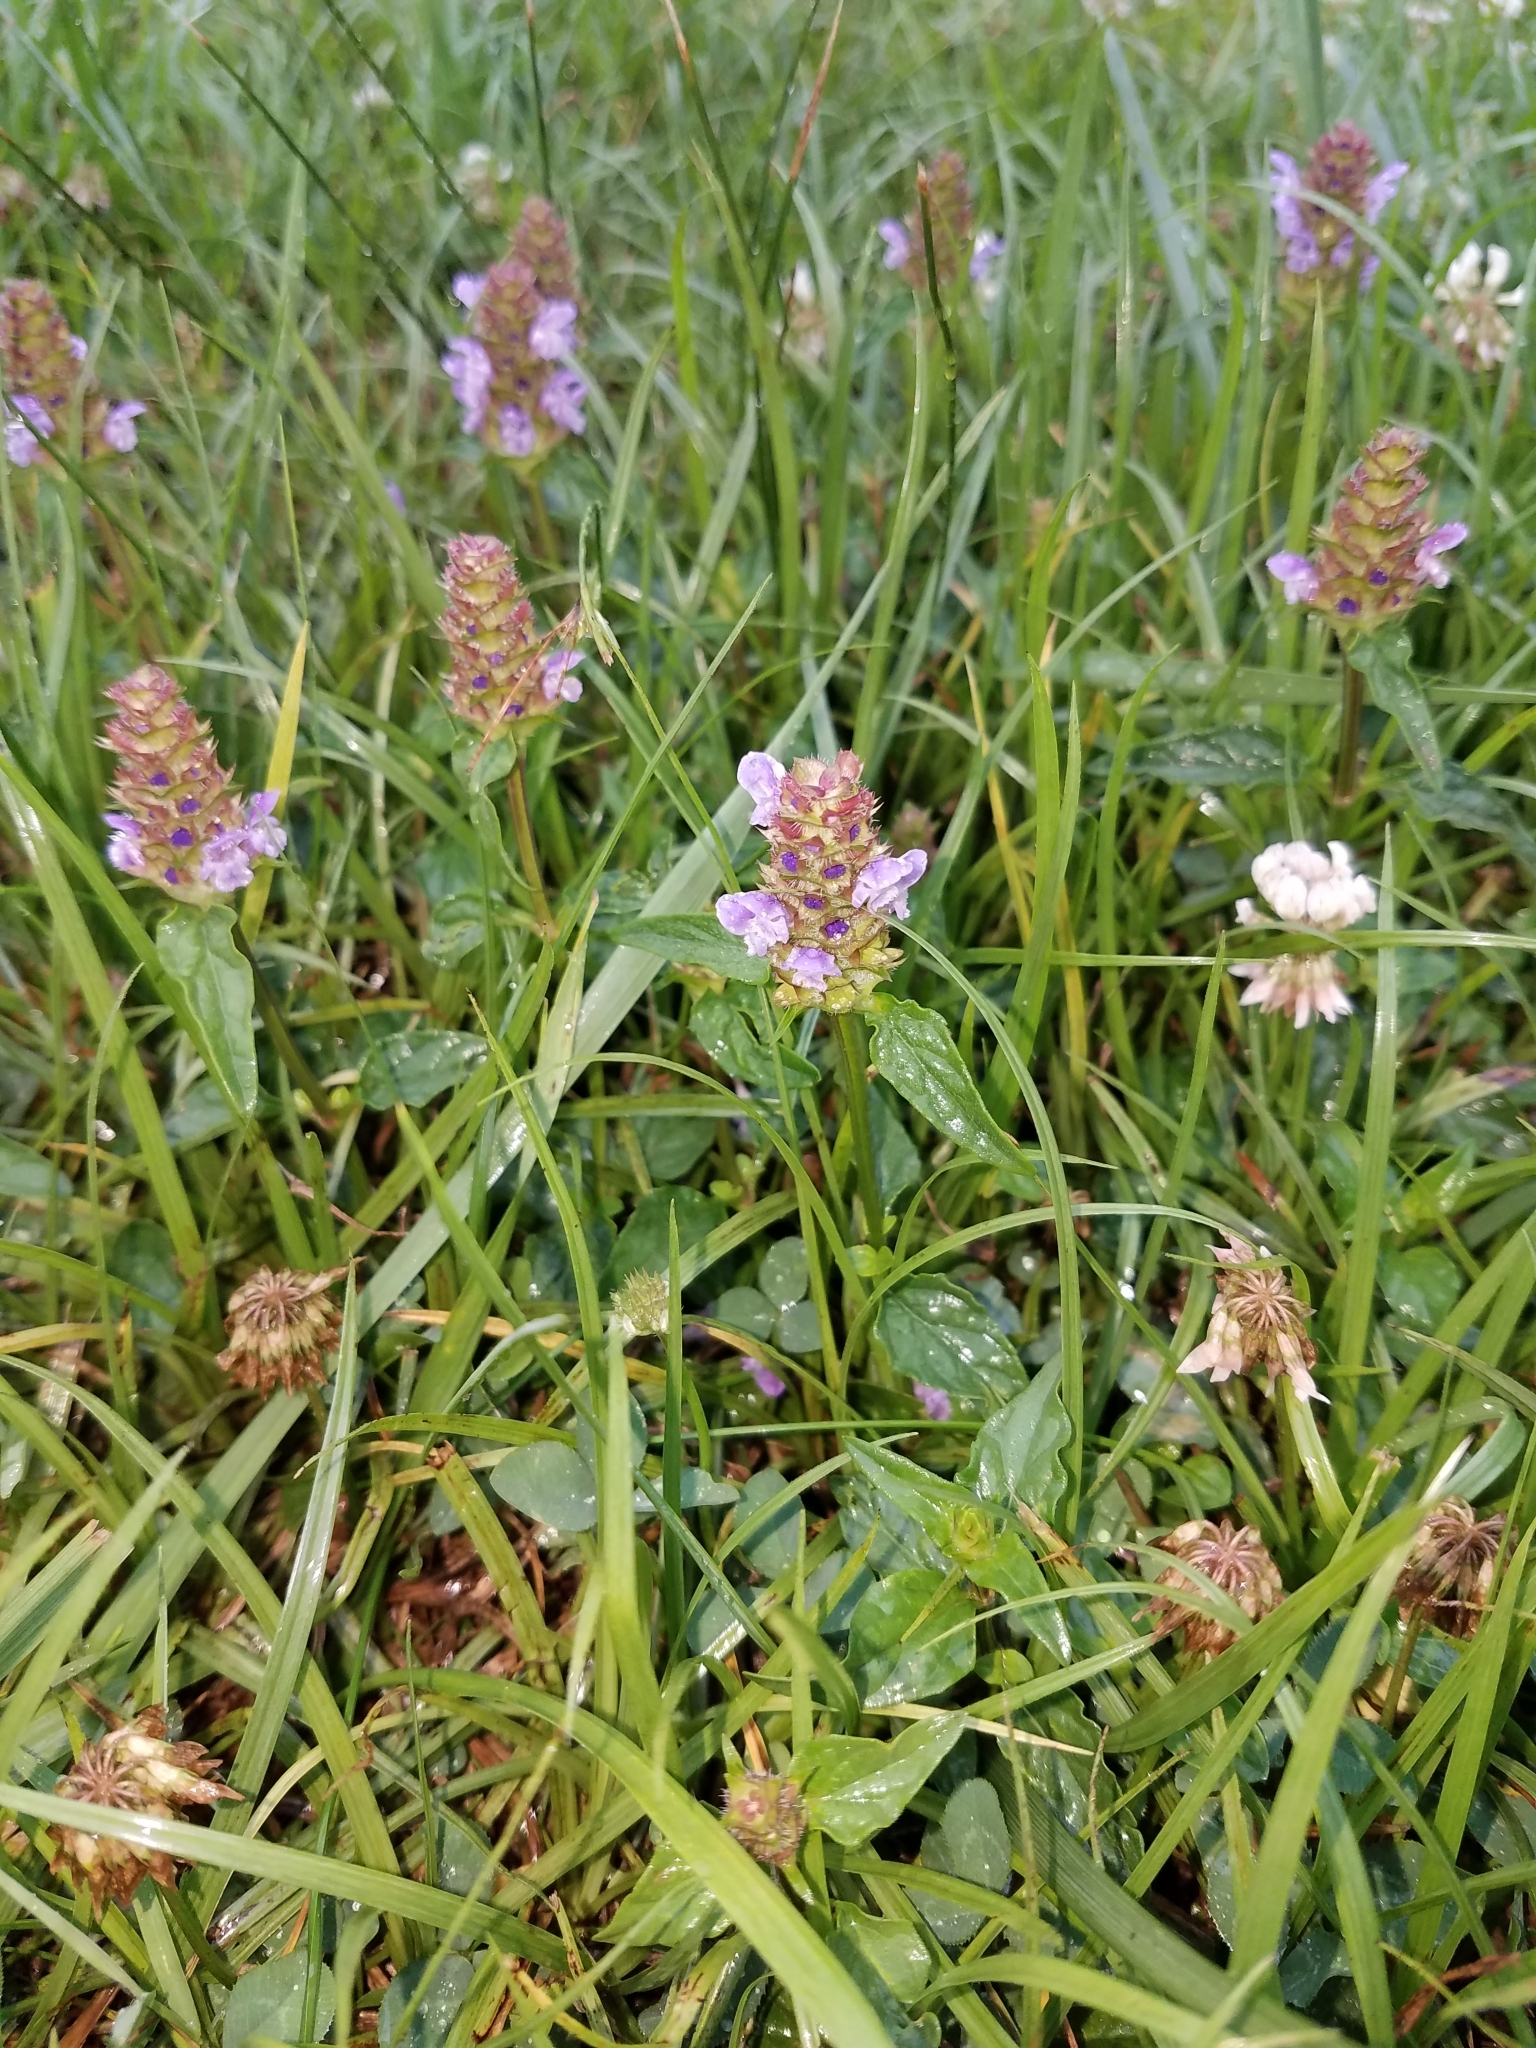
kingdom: Plantae
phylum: Tracheophyta
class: Magnoliopsida
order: Lamiales
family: Lamiaceae
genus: Prunella
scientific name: Prunella vulgaris
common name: Heal-all
